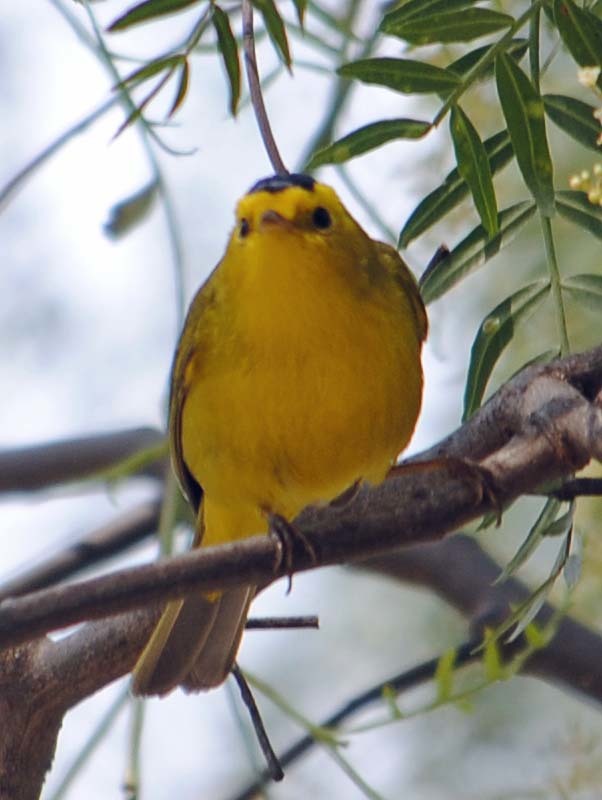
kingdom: Animalia
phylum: Chordata
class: Aves
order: Passeriformes
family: Parulidae
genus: Cardellina
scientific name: Cardellina pusilla
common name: Wilson's warbler
